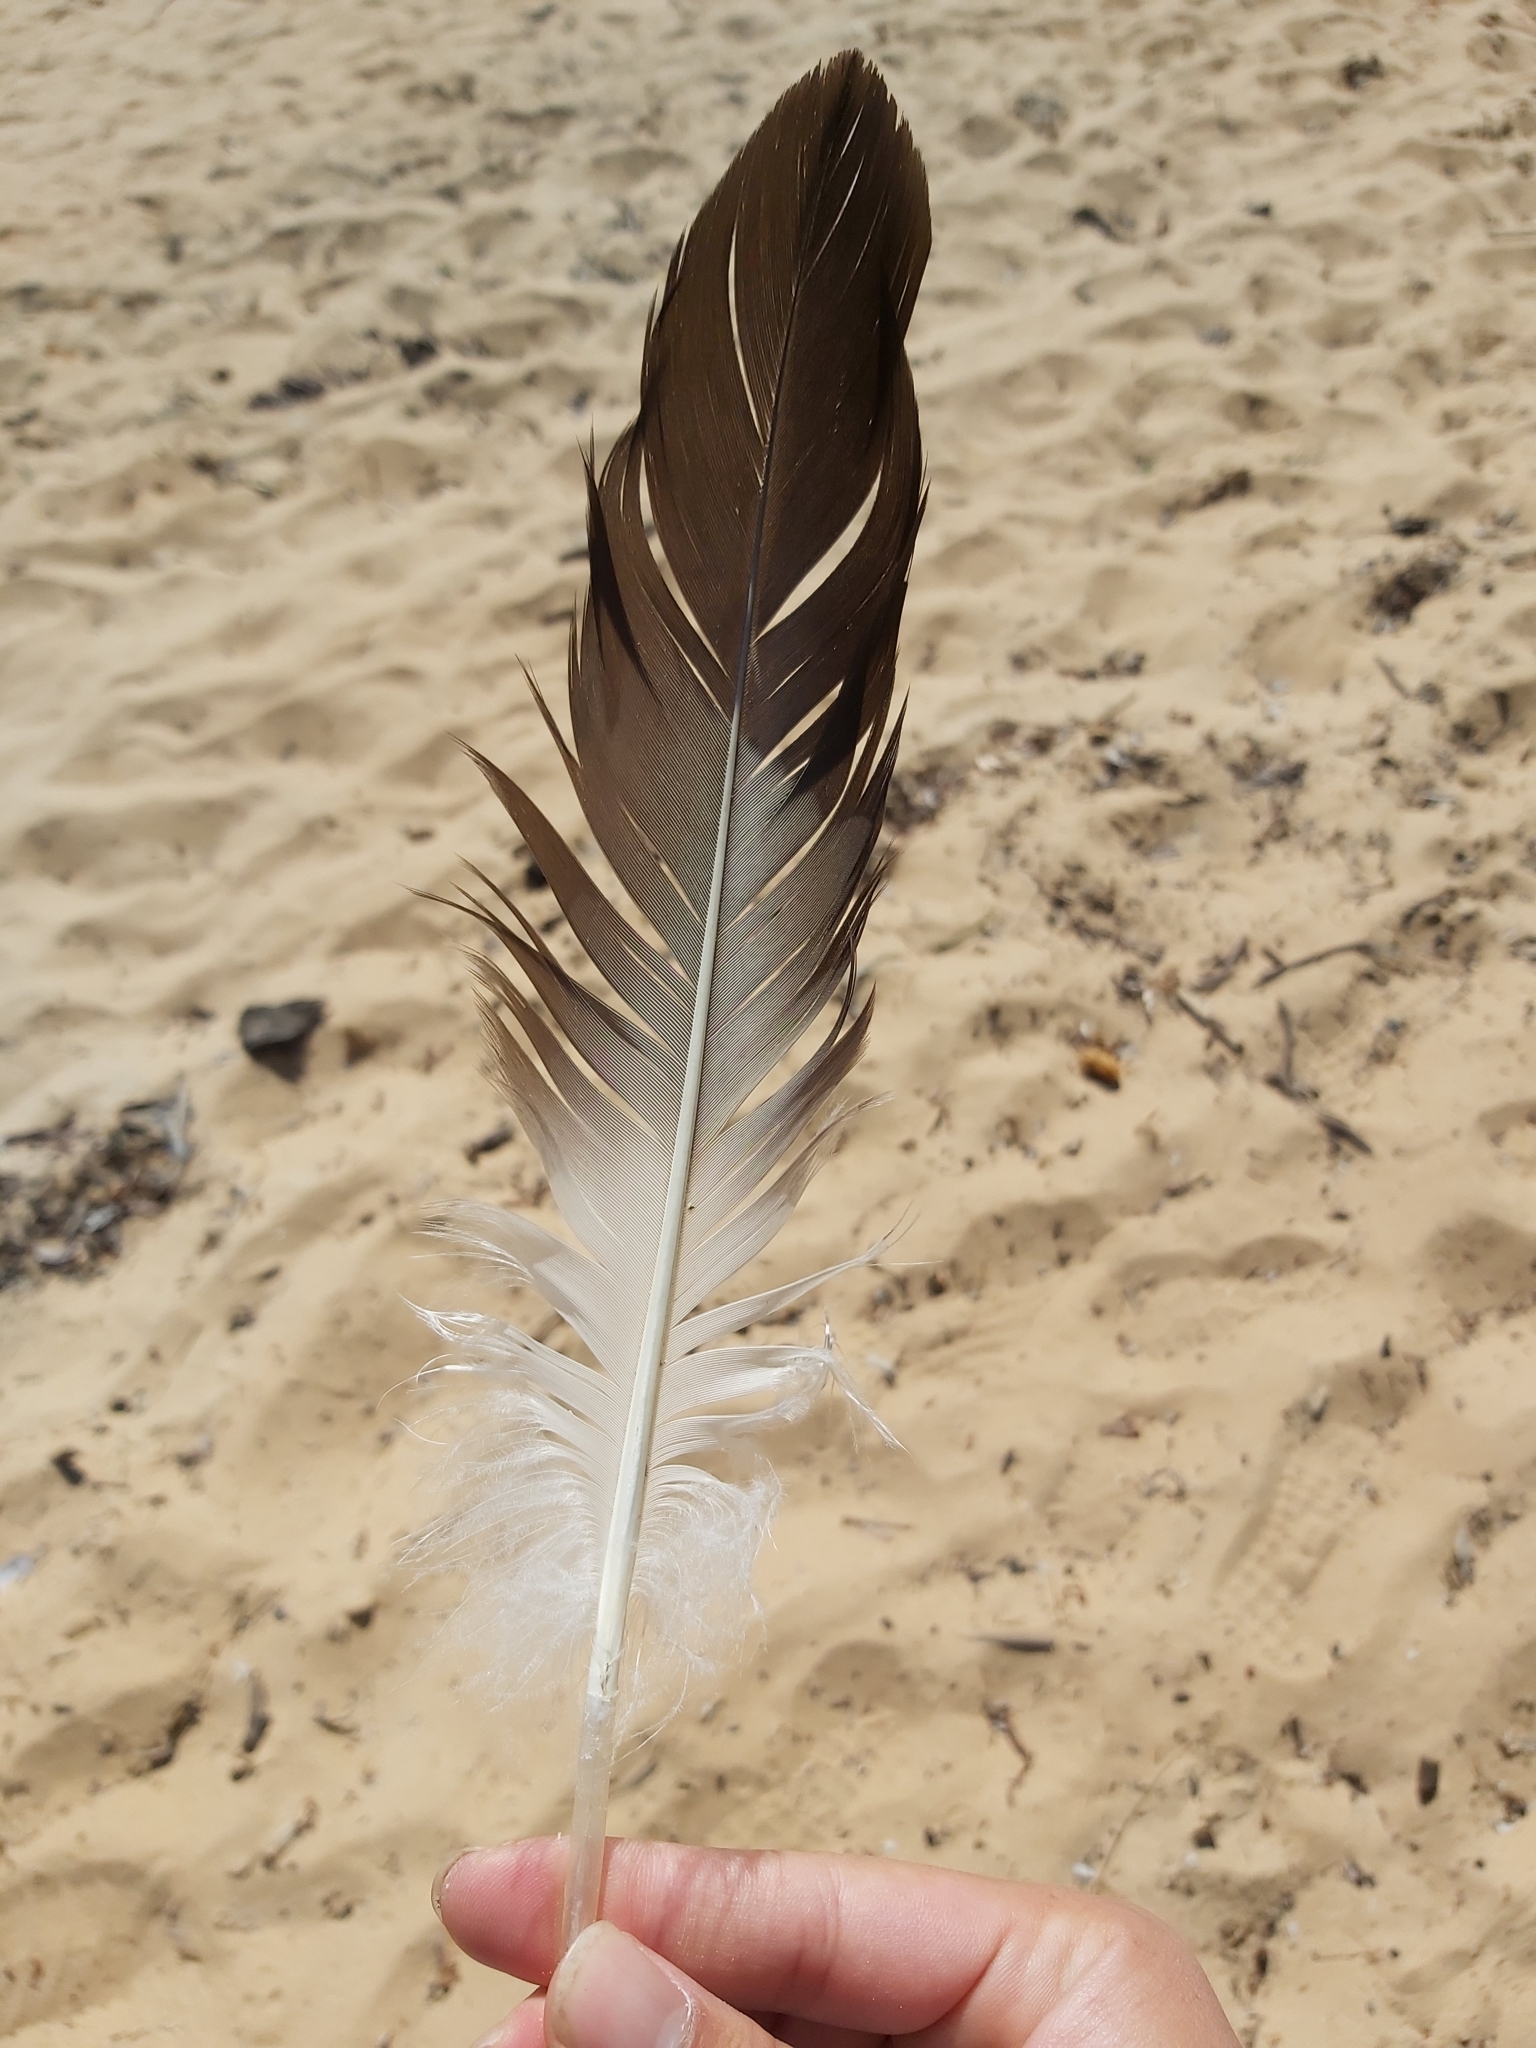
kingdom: Animalia
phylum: Chordata
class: Aves
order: Pelecaniformes
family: Pelecanidae
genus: Pelecanus
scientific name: Pelecanus conspicillatus
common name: Australian pelican
